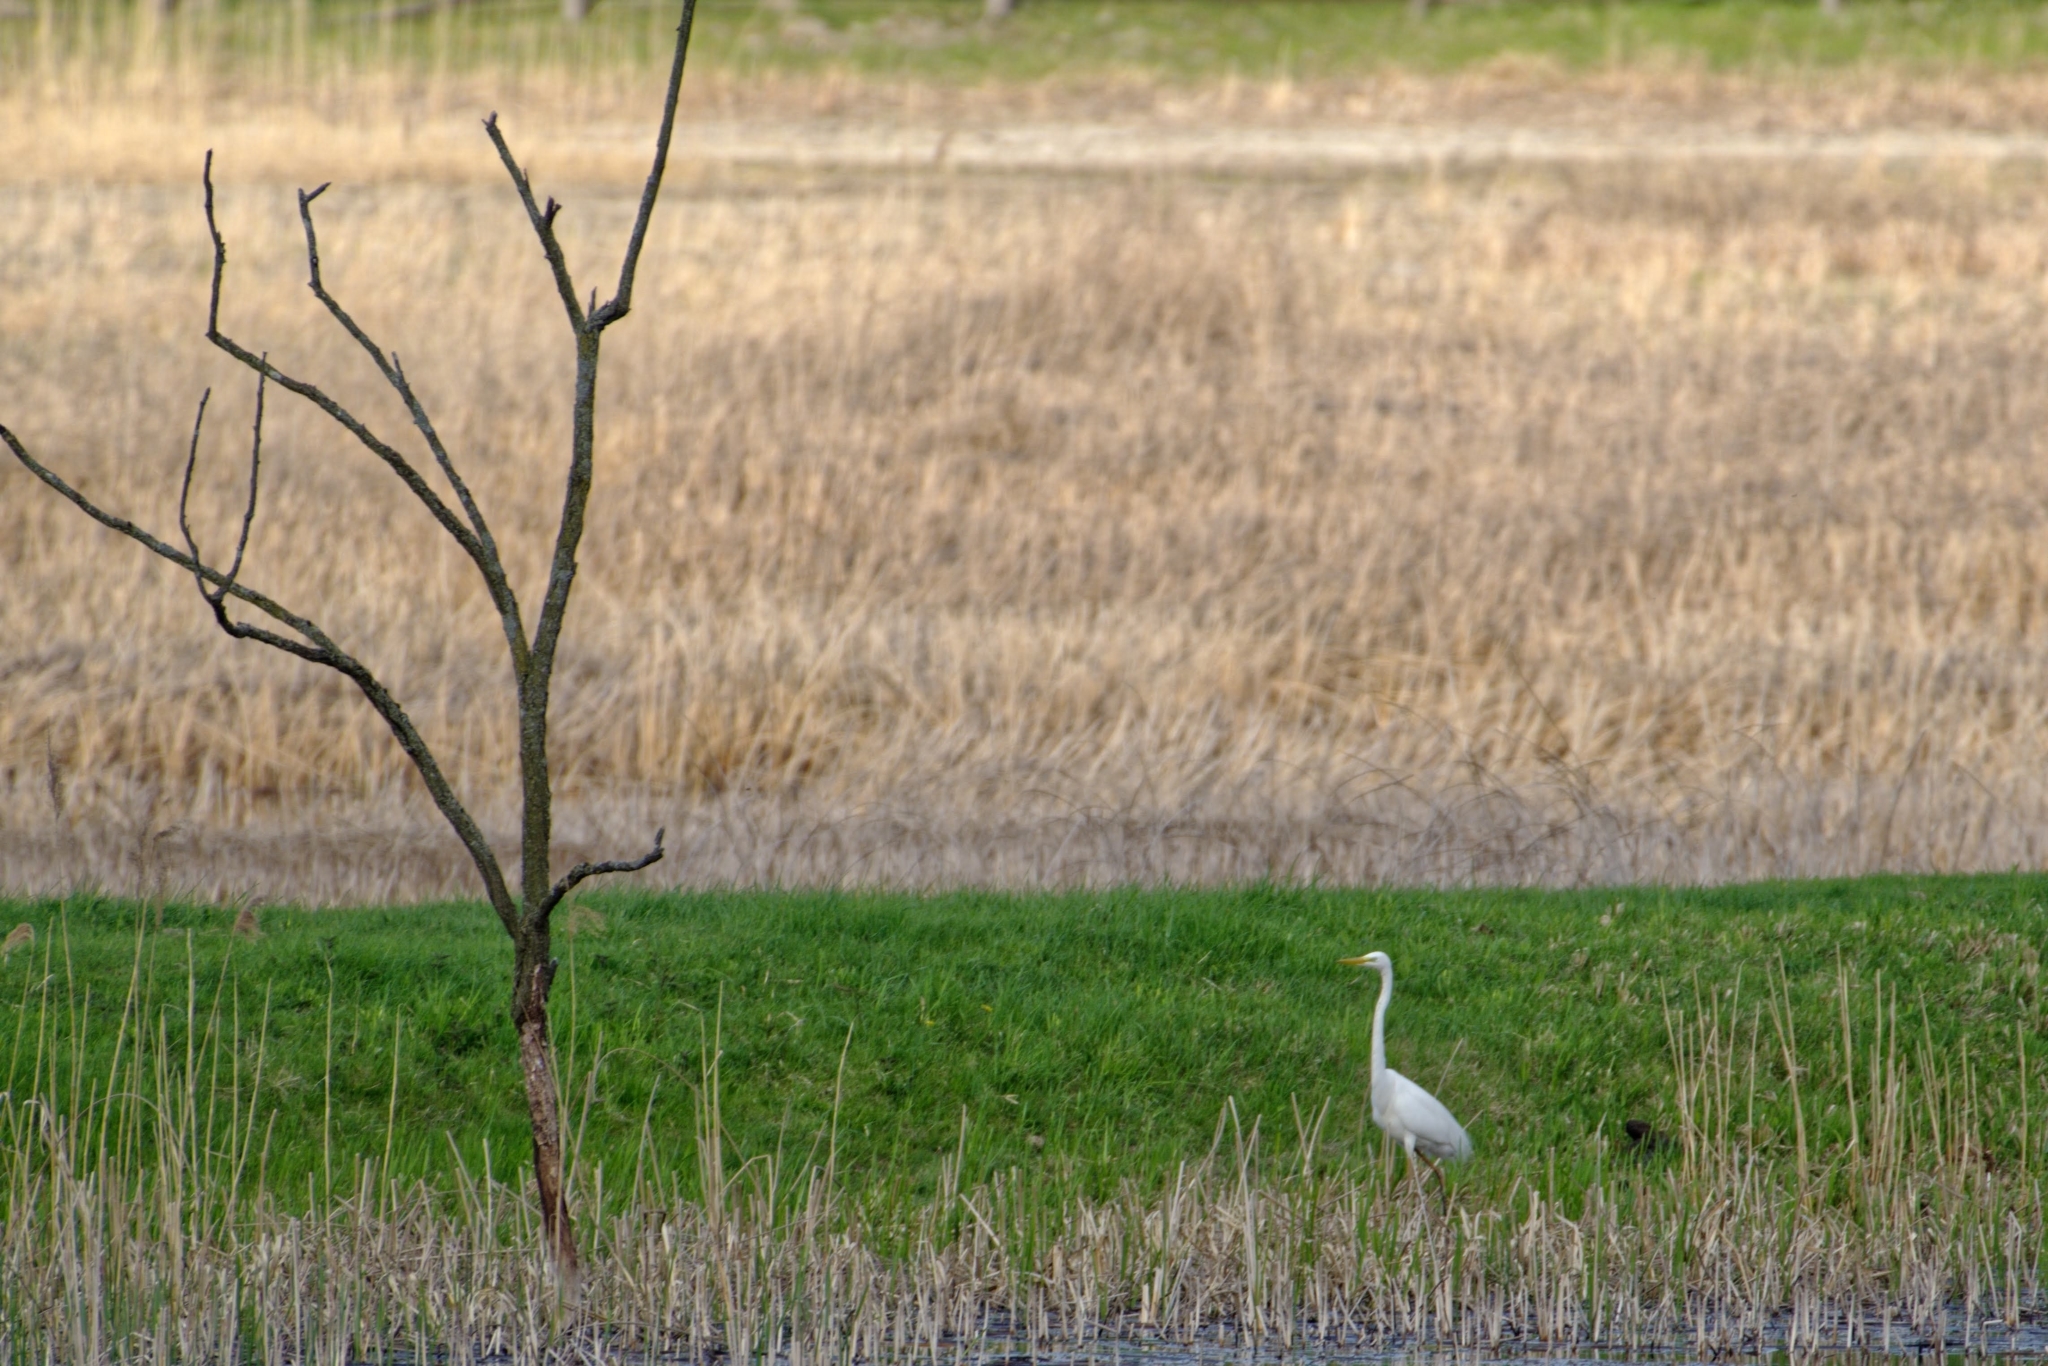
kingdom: Animalia
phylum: Chordata
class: Aves
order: Pelecaniformes
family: Ardeidae
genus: Ardea
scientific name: Ardea alba
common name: Great egret
